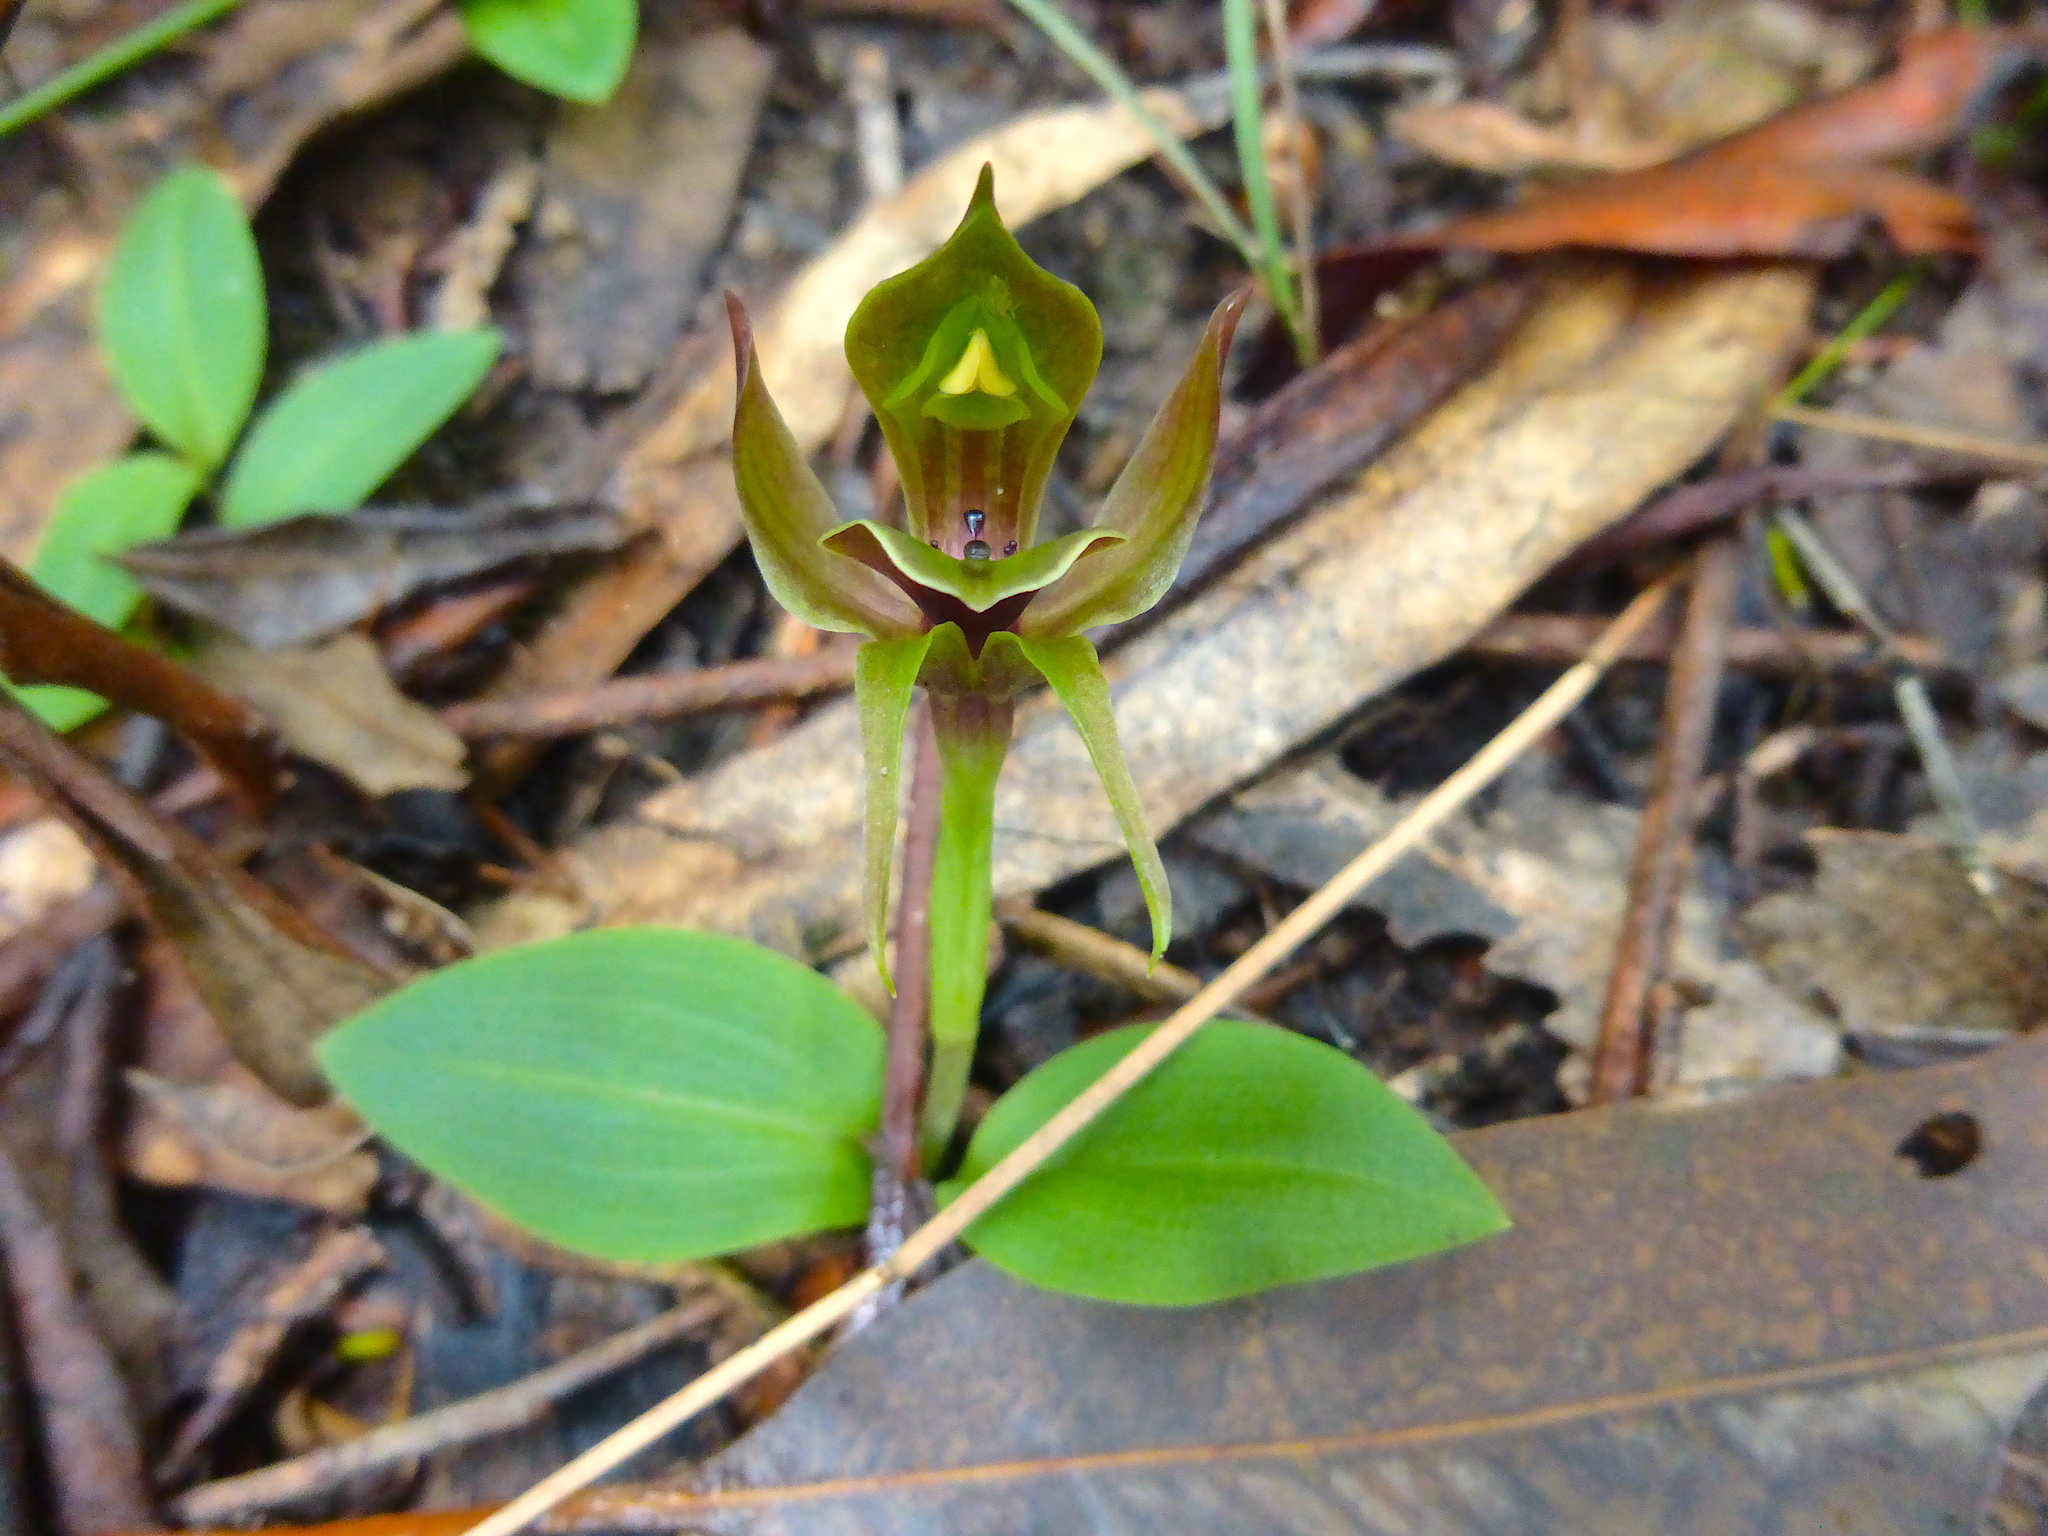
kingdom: Plantae
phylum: Tracheophyta
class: Liliopsida
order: Asparagales
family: Orchidaceae
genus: Chiloglottis
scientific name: Chiloglottis valida
